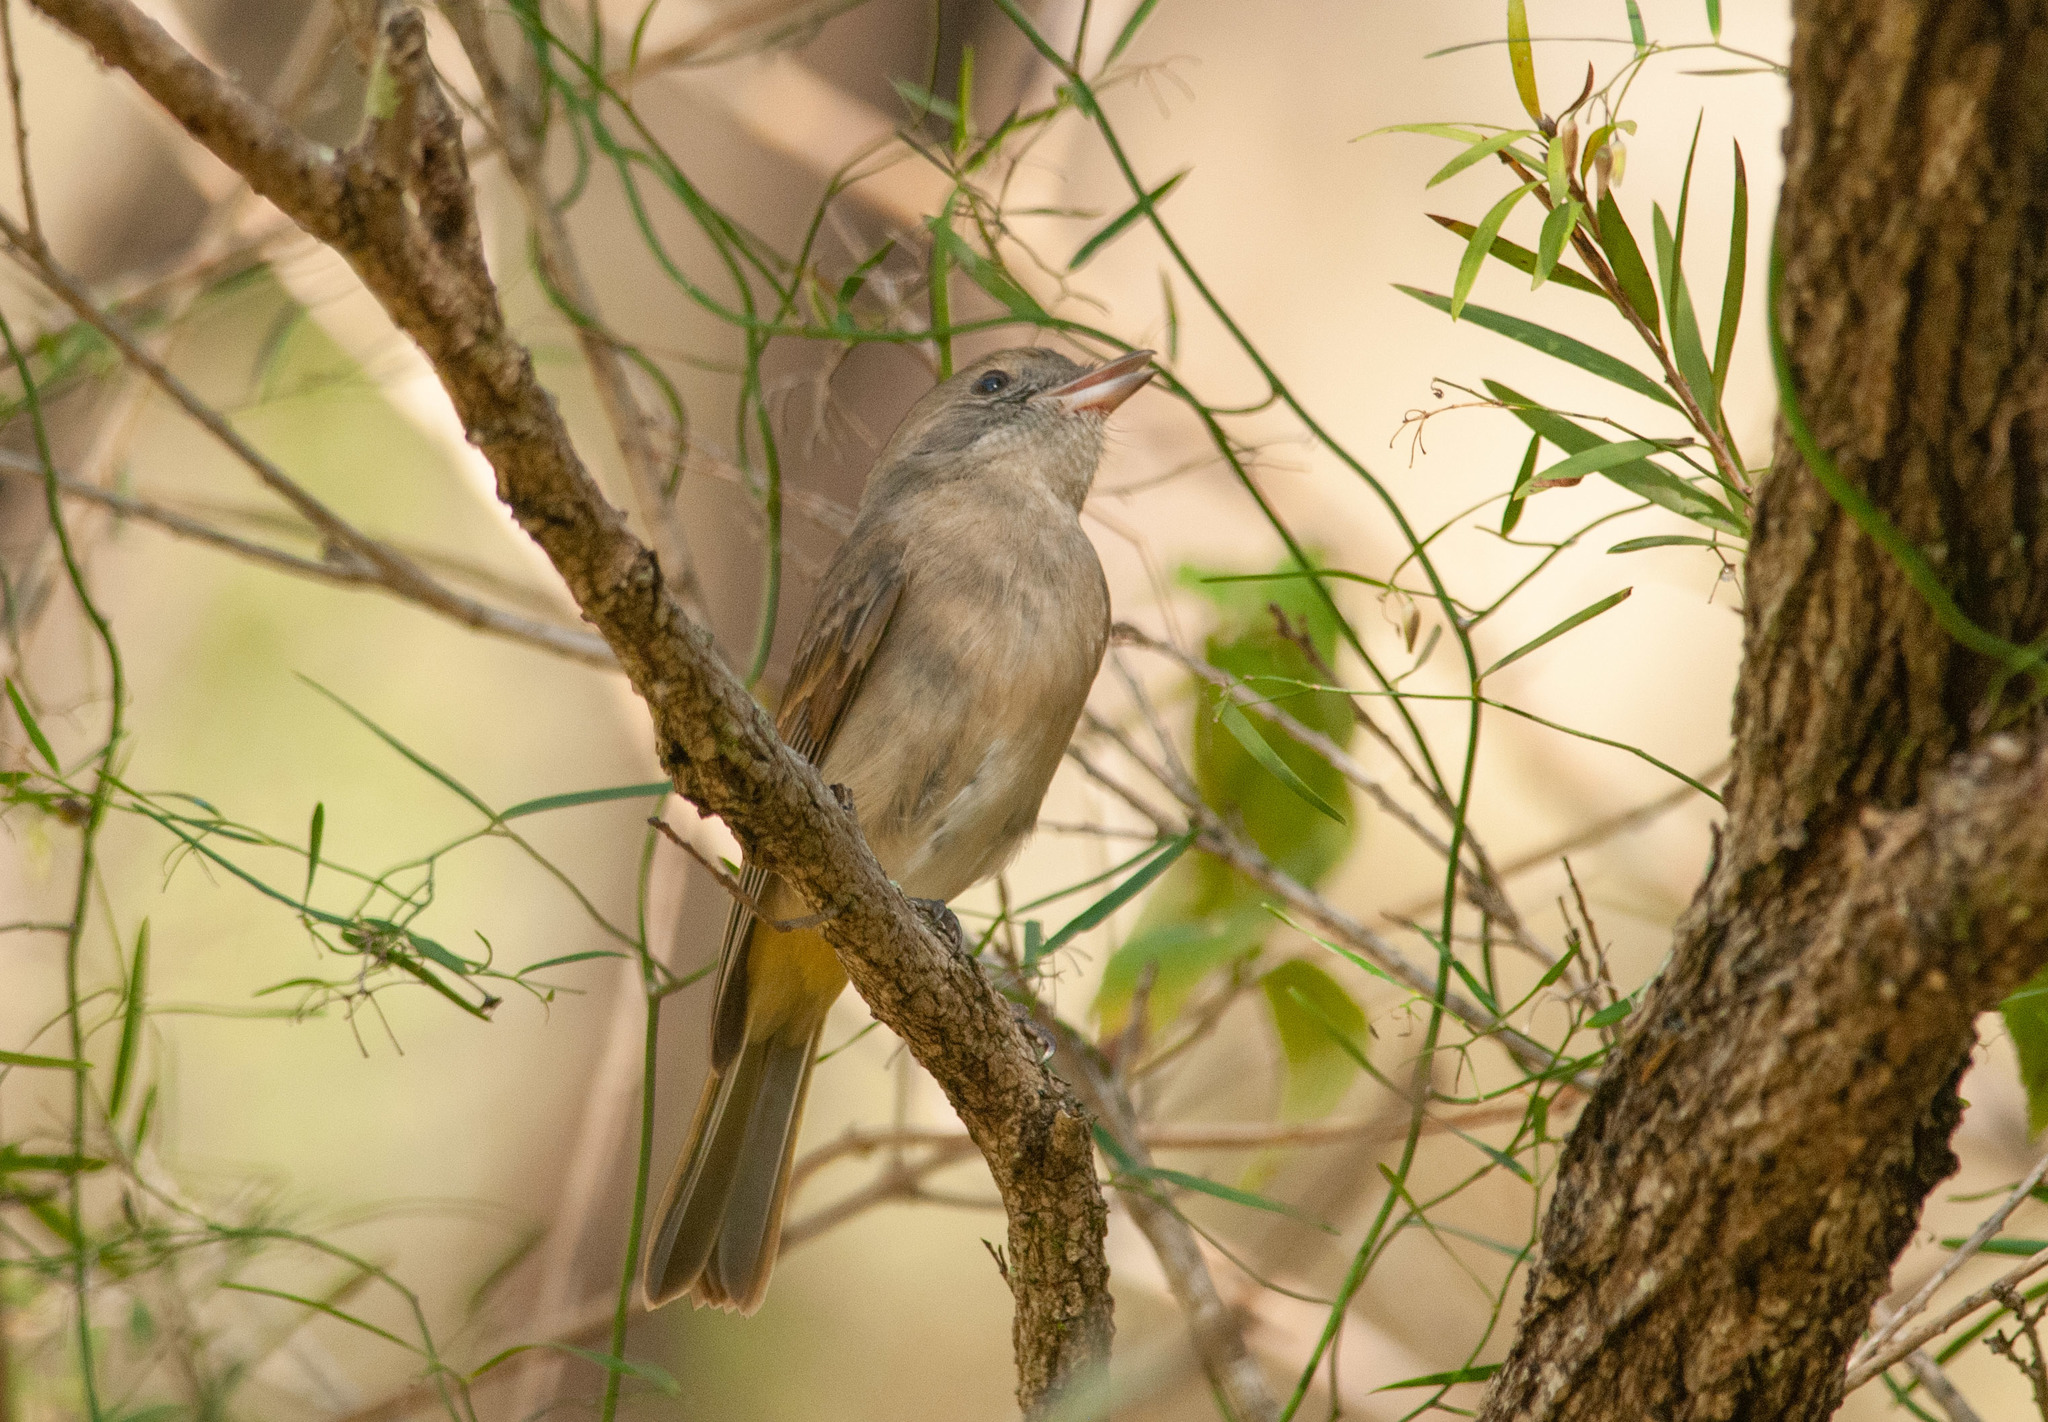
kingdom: Animalia
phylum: Chordata
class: Aves
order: Passeriformes
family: Pachycephalidae
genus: Pachycephala
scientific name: Pachycephala pectoralis
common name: Australian golden whistler
